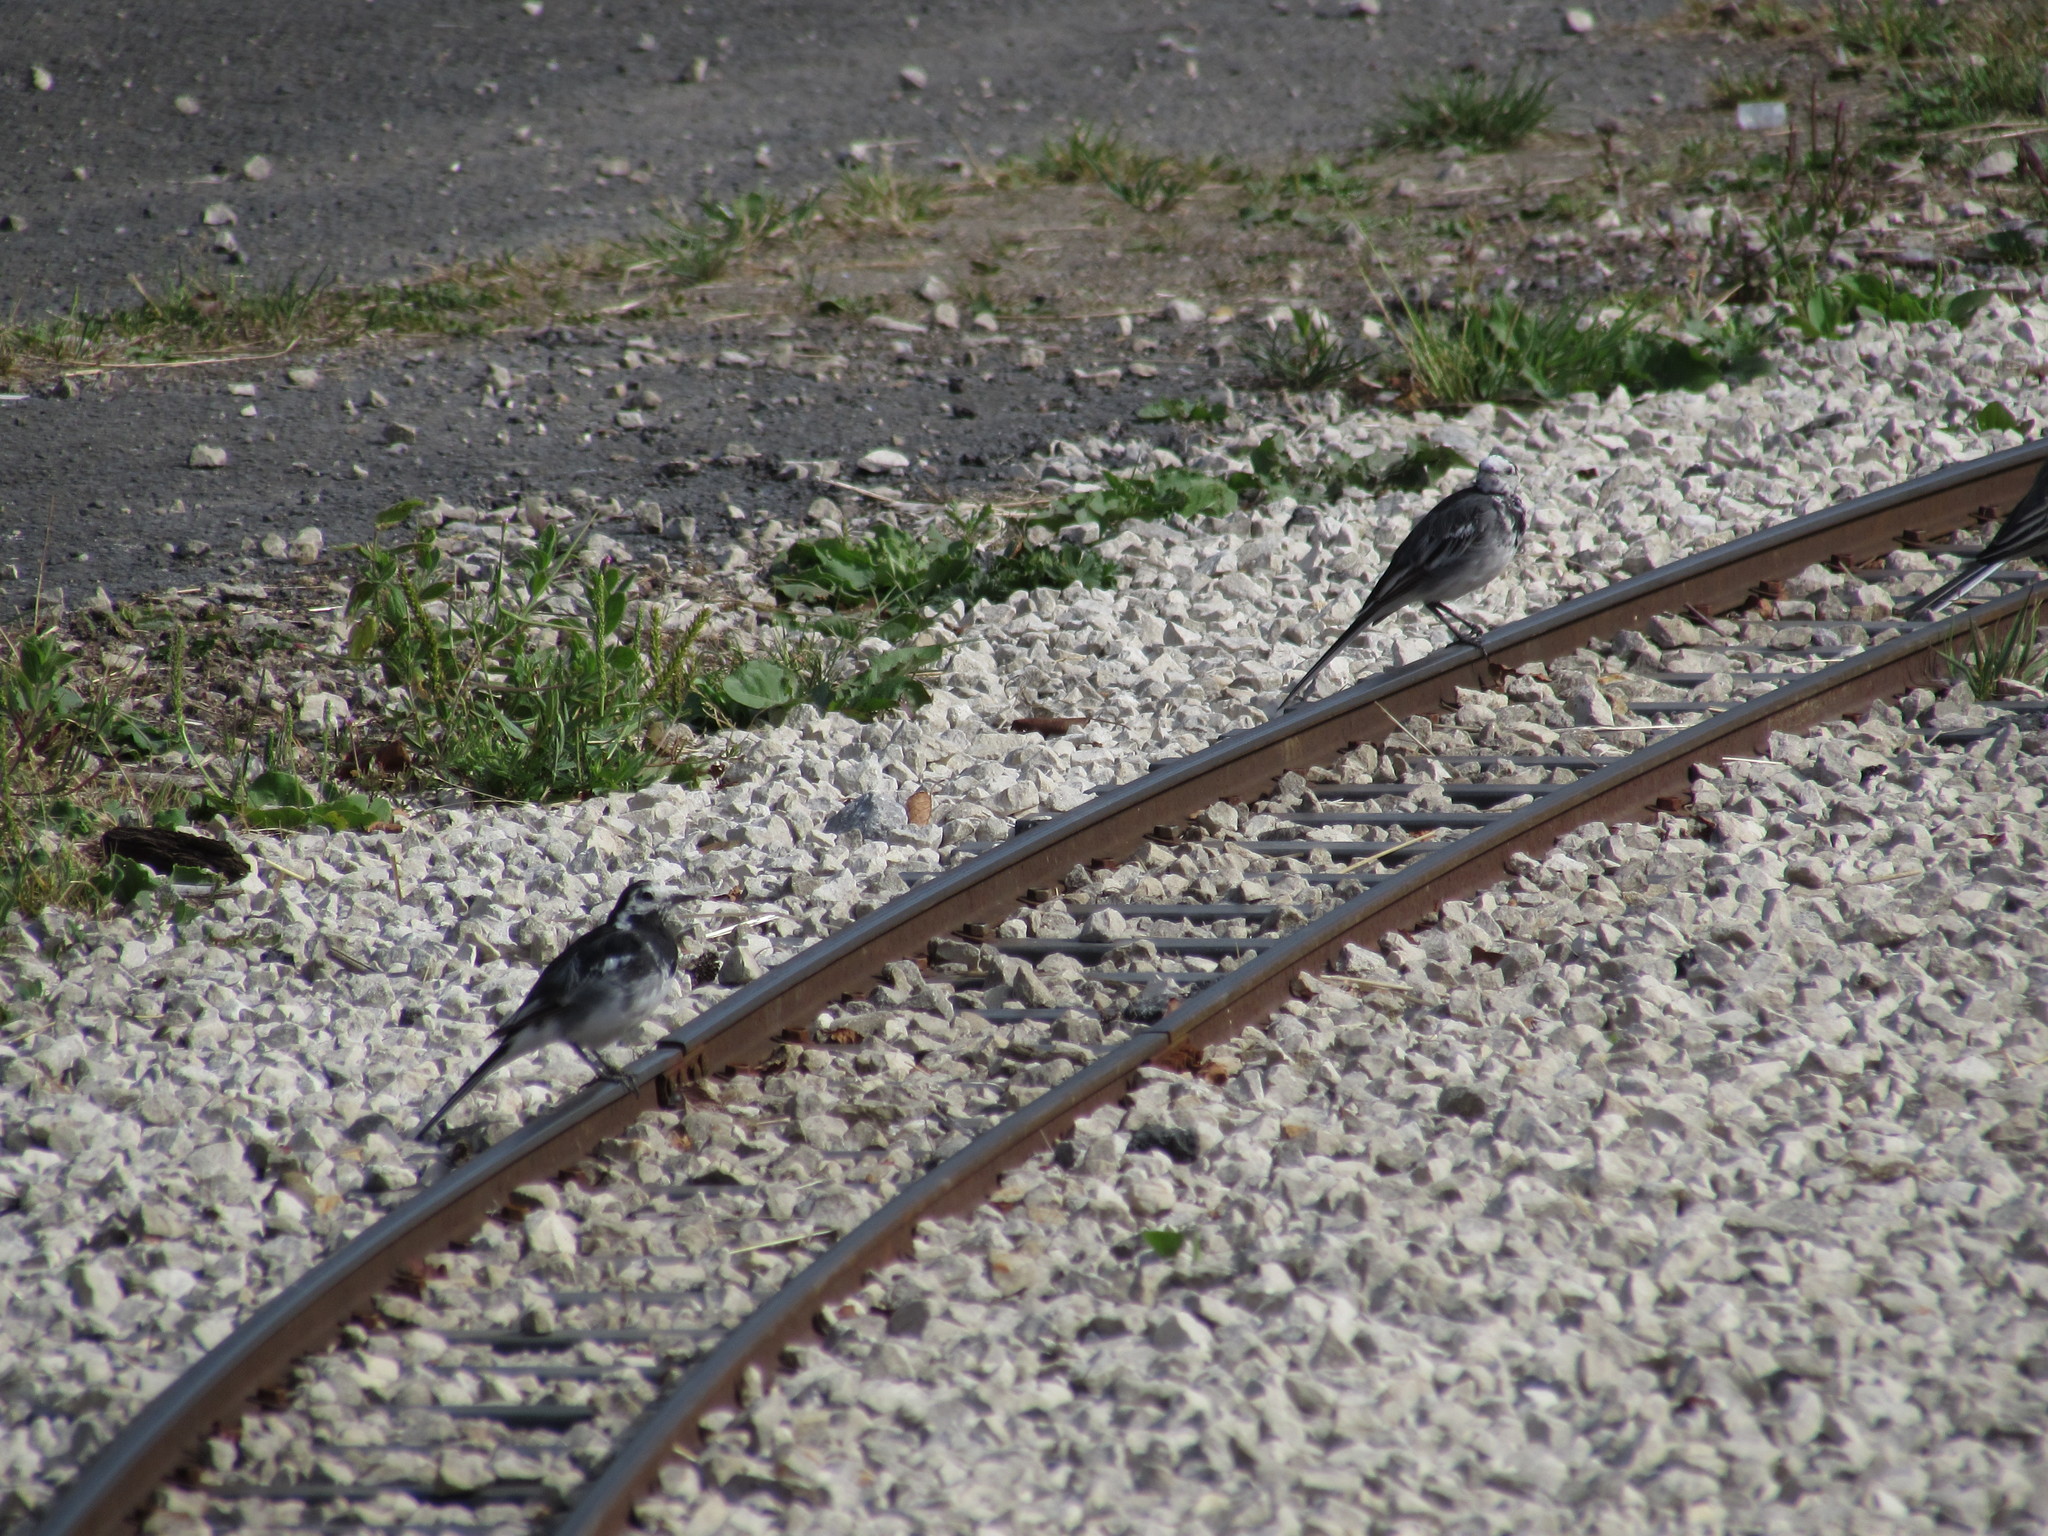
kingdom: Animalia
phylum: Chordata
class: Aves
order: Passeriformes
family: Motacillidae
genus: Motacilla
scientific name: Motacilla alba
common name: White wagtail
